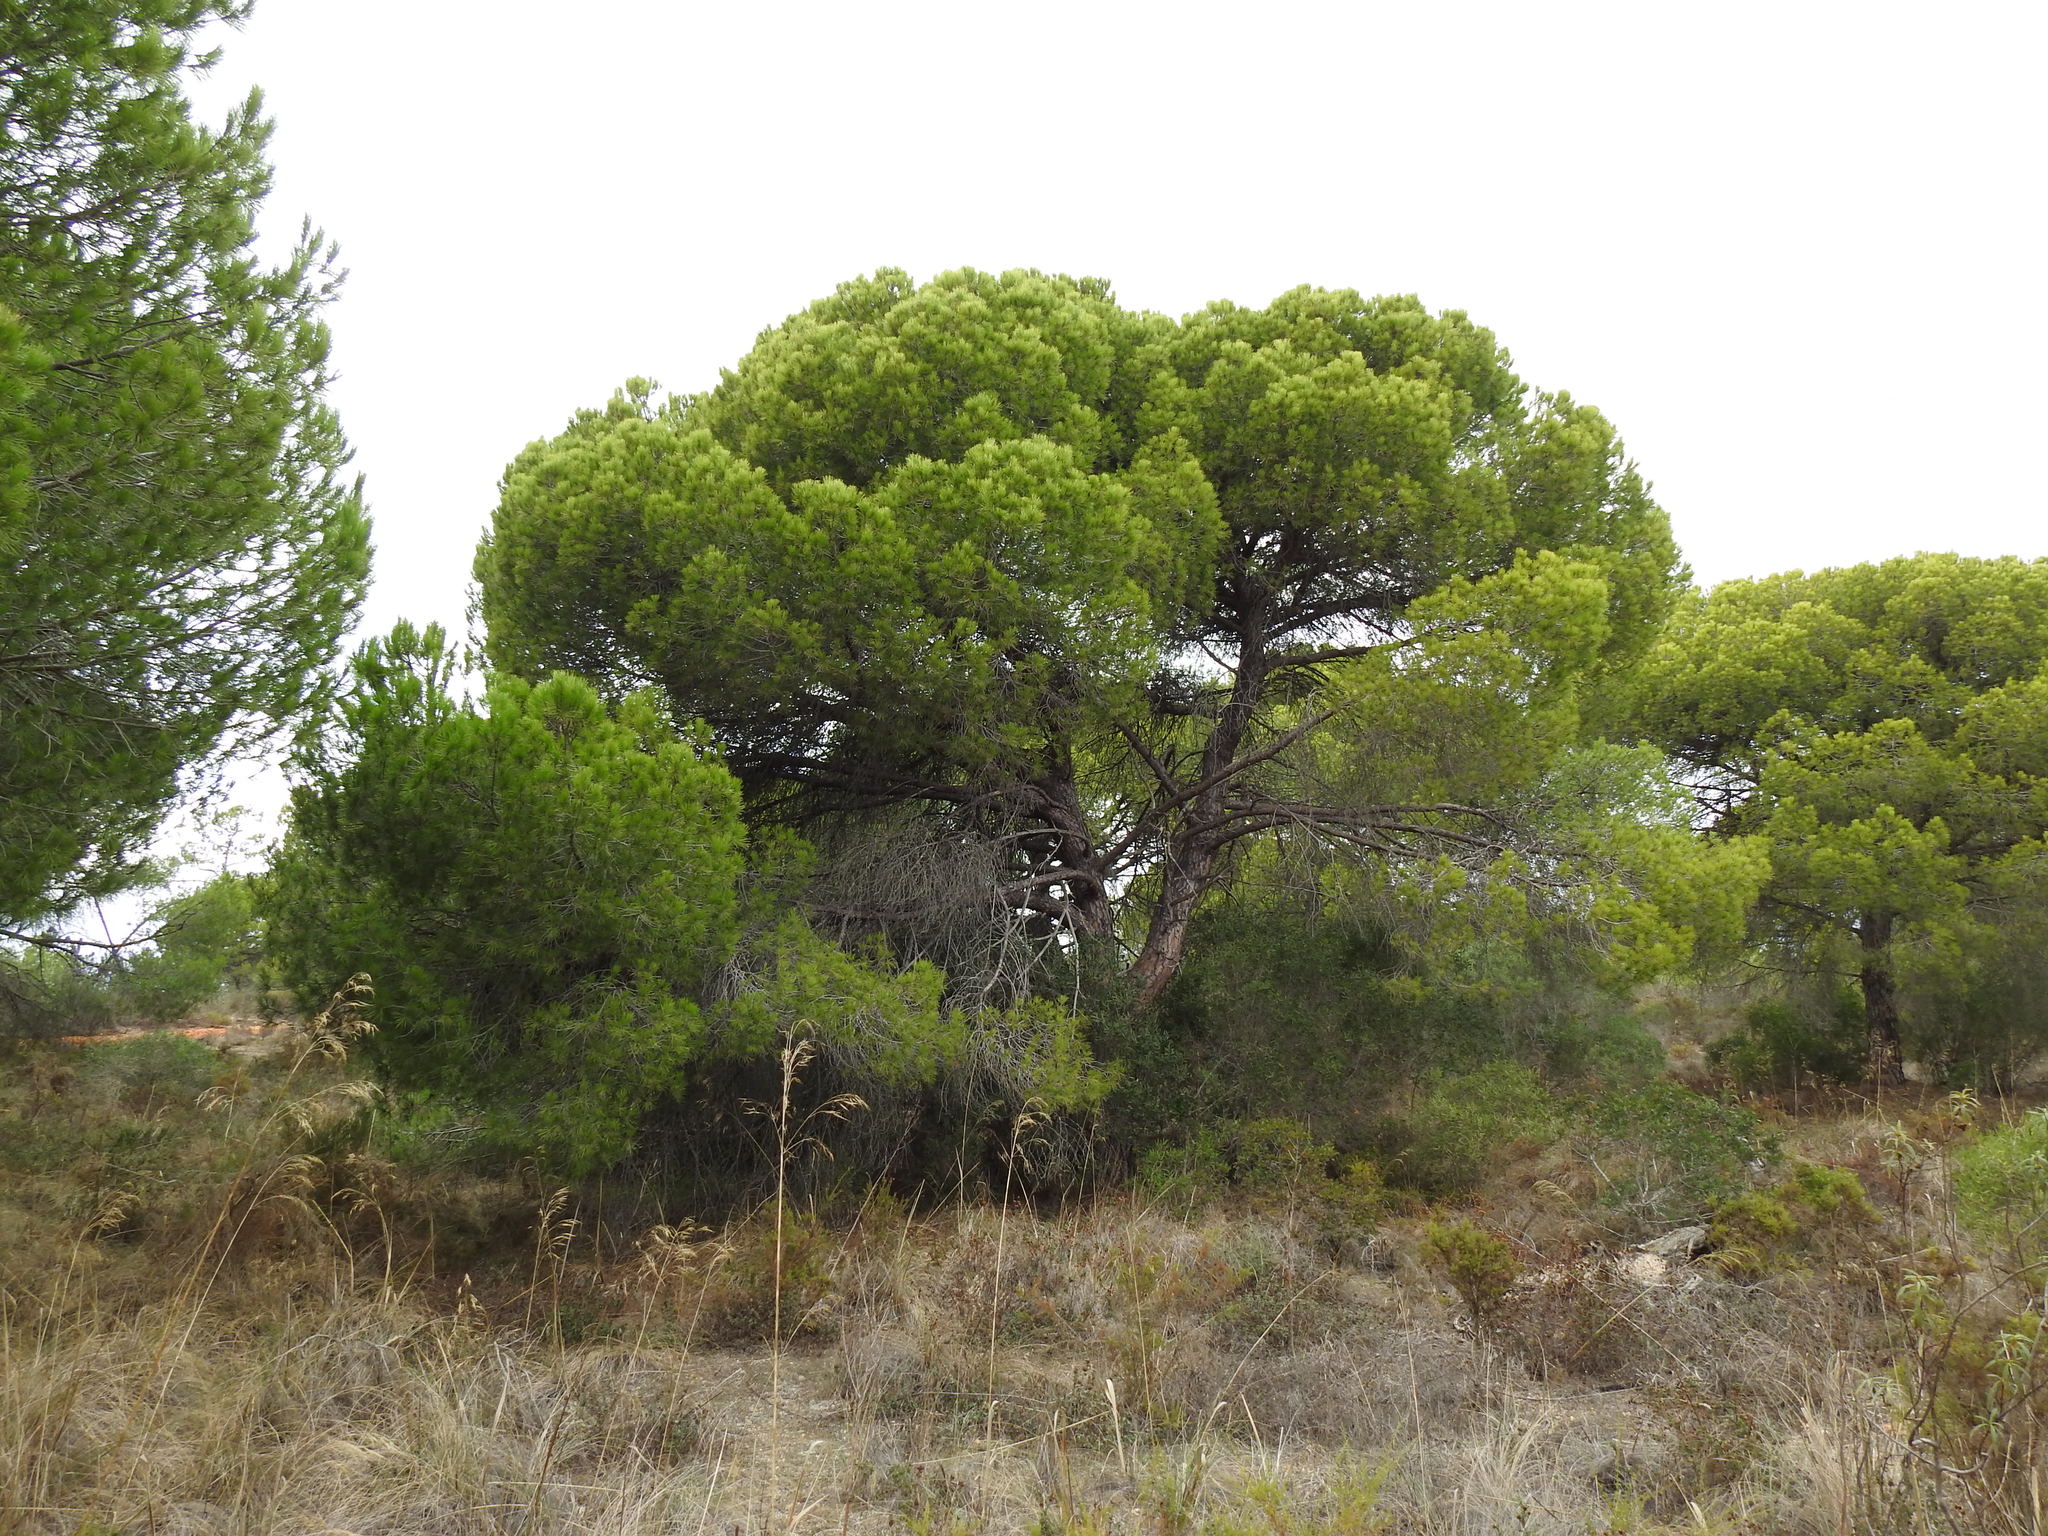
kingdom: Plantae
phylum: Tracheophyta
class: Pinopsida
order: Pinales
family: Pinaceae
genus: Pinus
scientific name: Pinus pinea
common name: Italian stone pine
